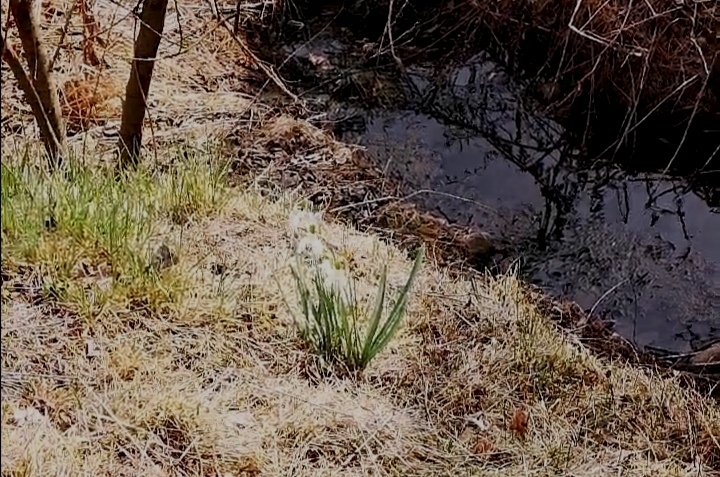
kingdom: Plantae
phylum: Tracheophyta
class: Liliopsida
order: Asparagales
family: Amaryllidaceae
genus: Galanthus
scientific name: Galanthus nivalis
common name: Snowdrop
